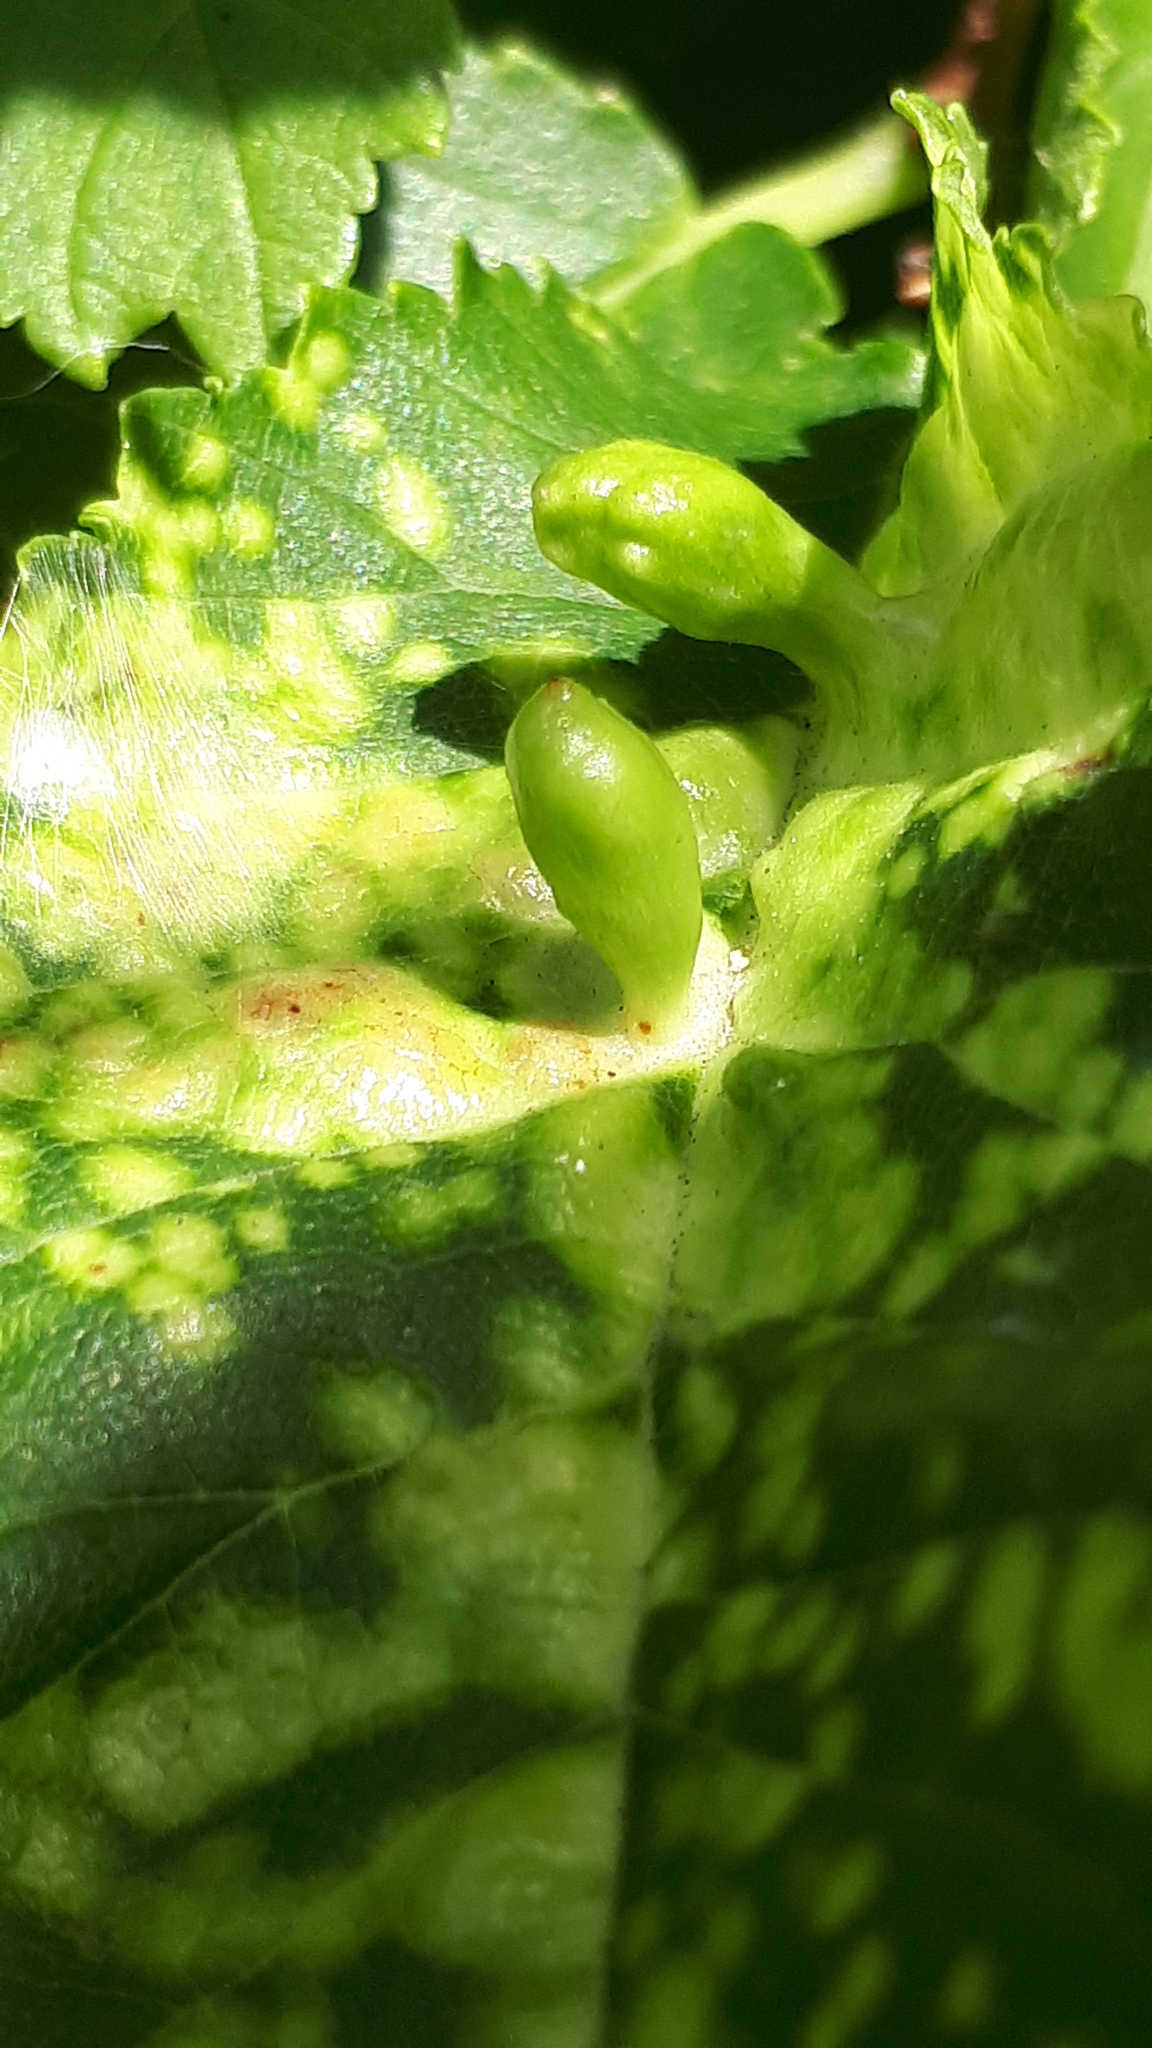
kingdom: Animalia
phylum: Arthropoda
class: Insecta
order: Hemiptera
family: Aphididae
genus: Tetraneura
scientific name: Tetraneura ulmi
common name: Aphid
